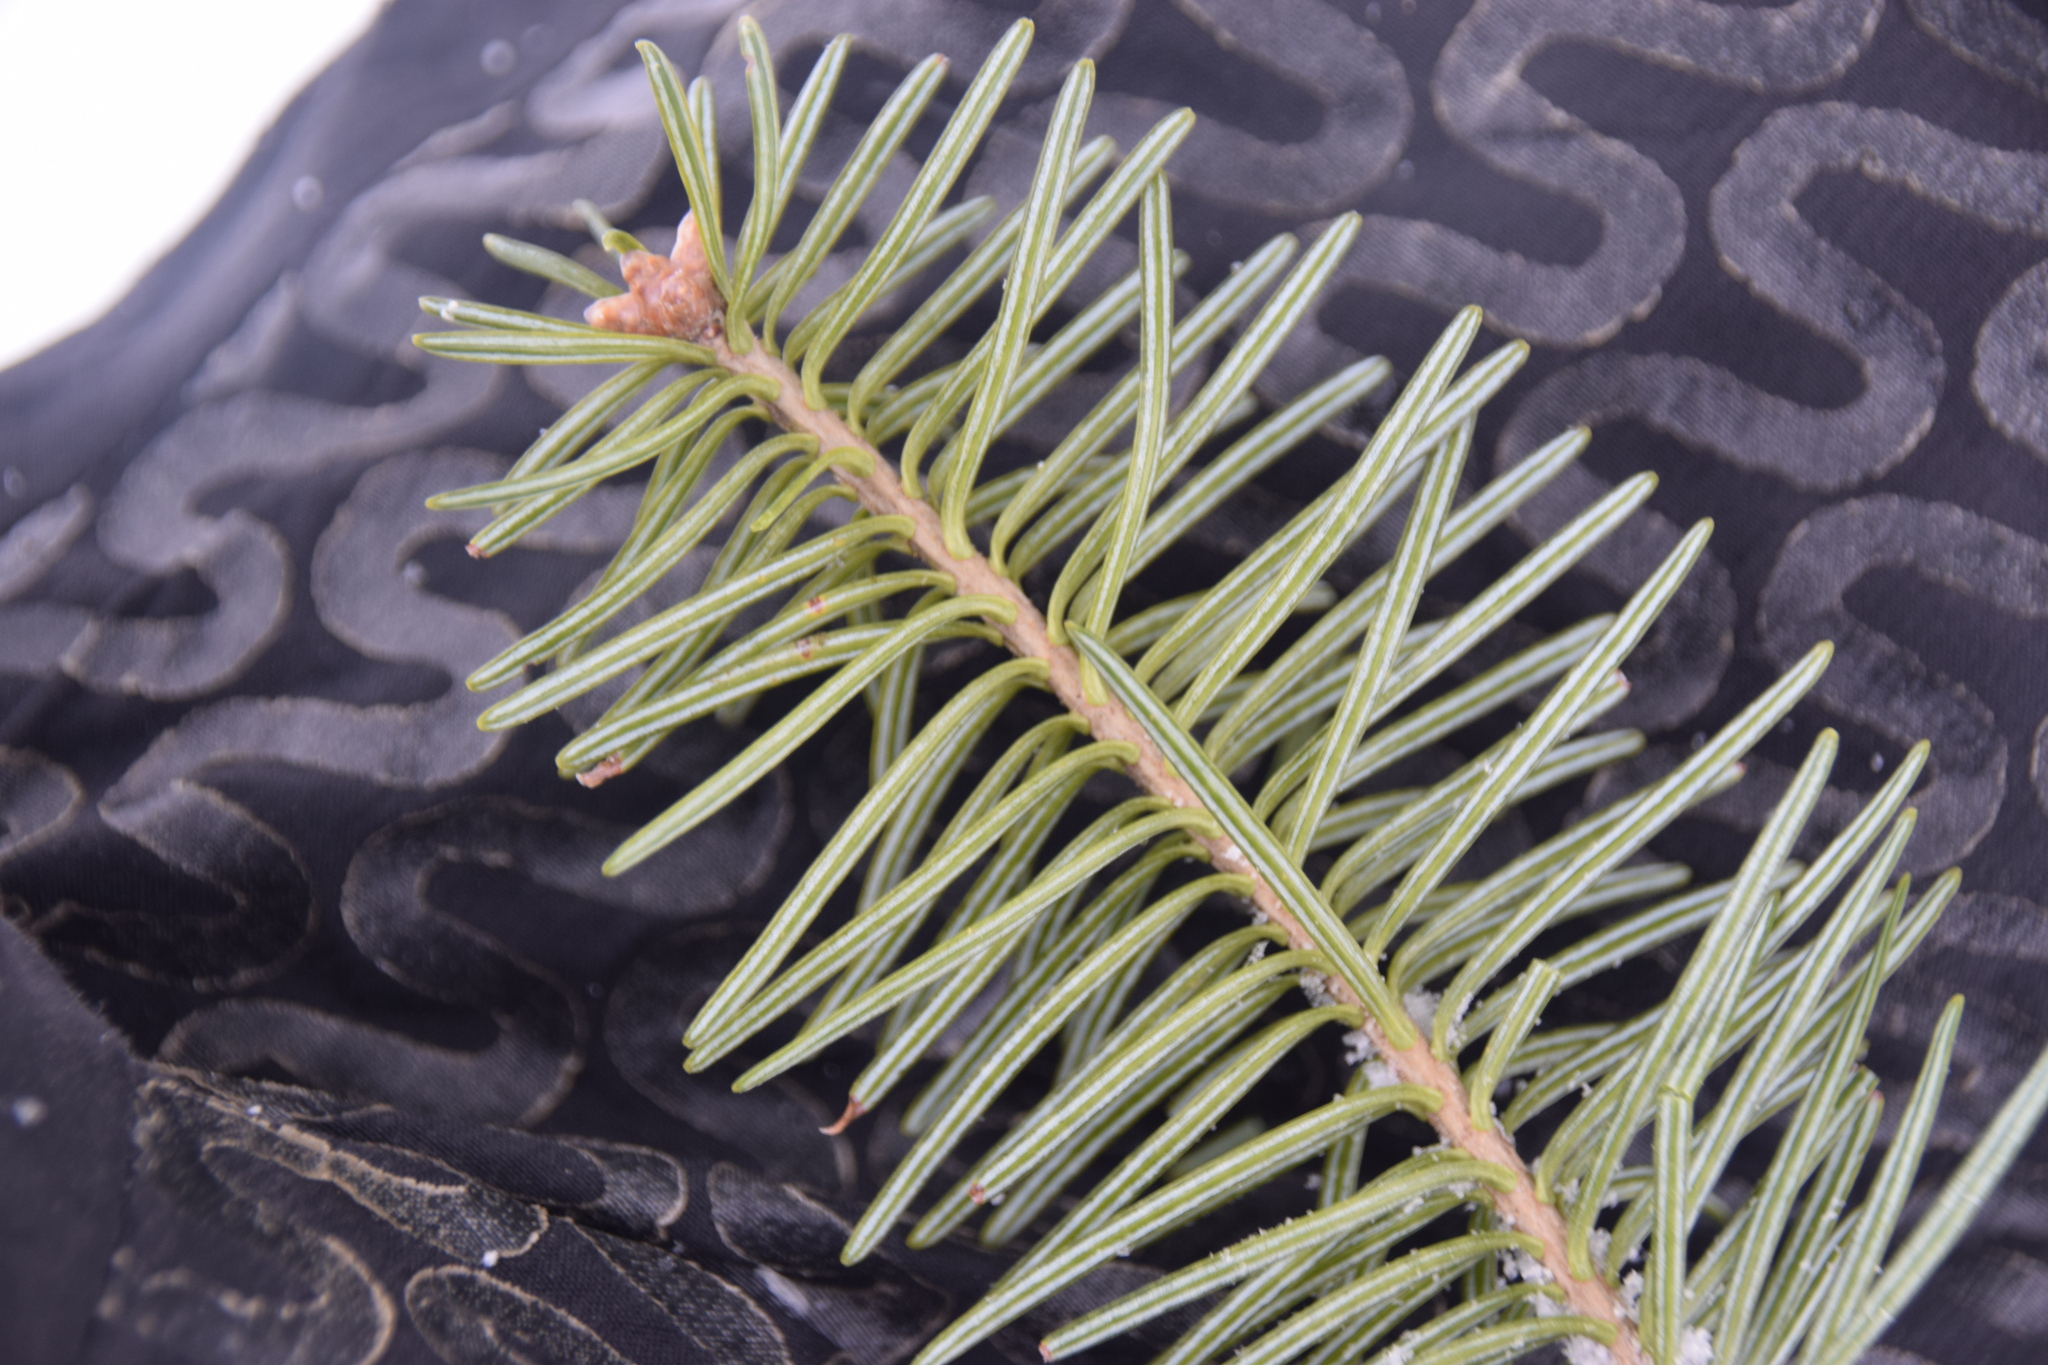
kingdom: Plantae
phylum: Tracheophyta
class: Pinopsida
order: Pinales
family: Pinaceae
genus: Abies
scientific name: Abies balsamea
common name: Balsam fir
